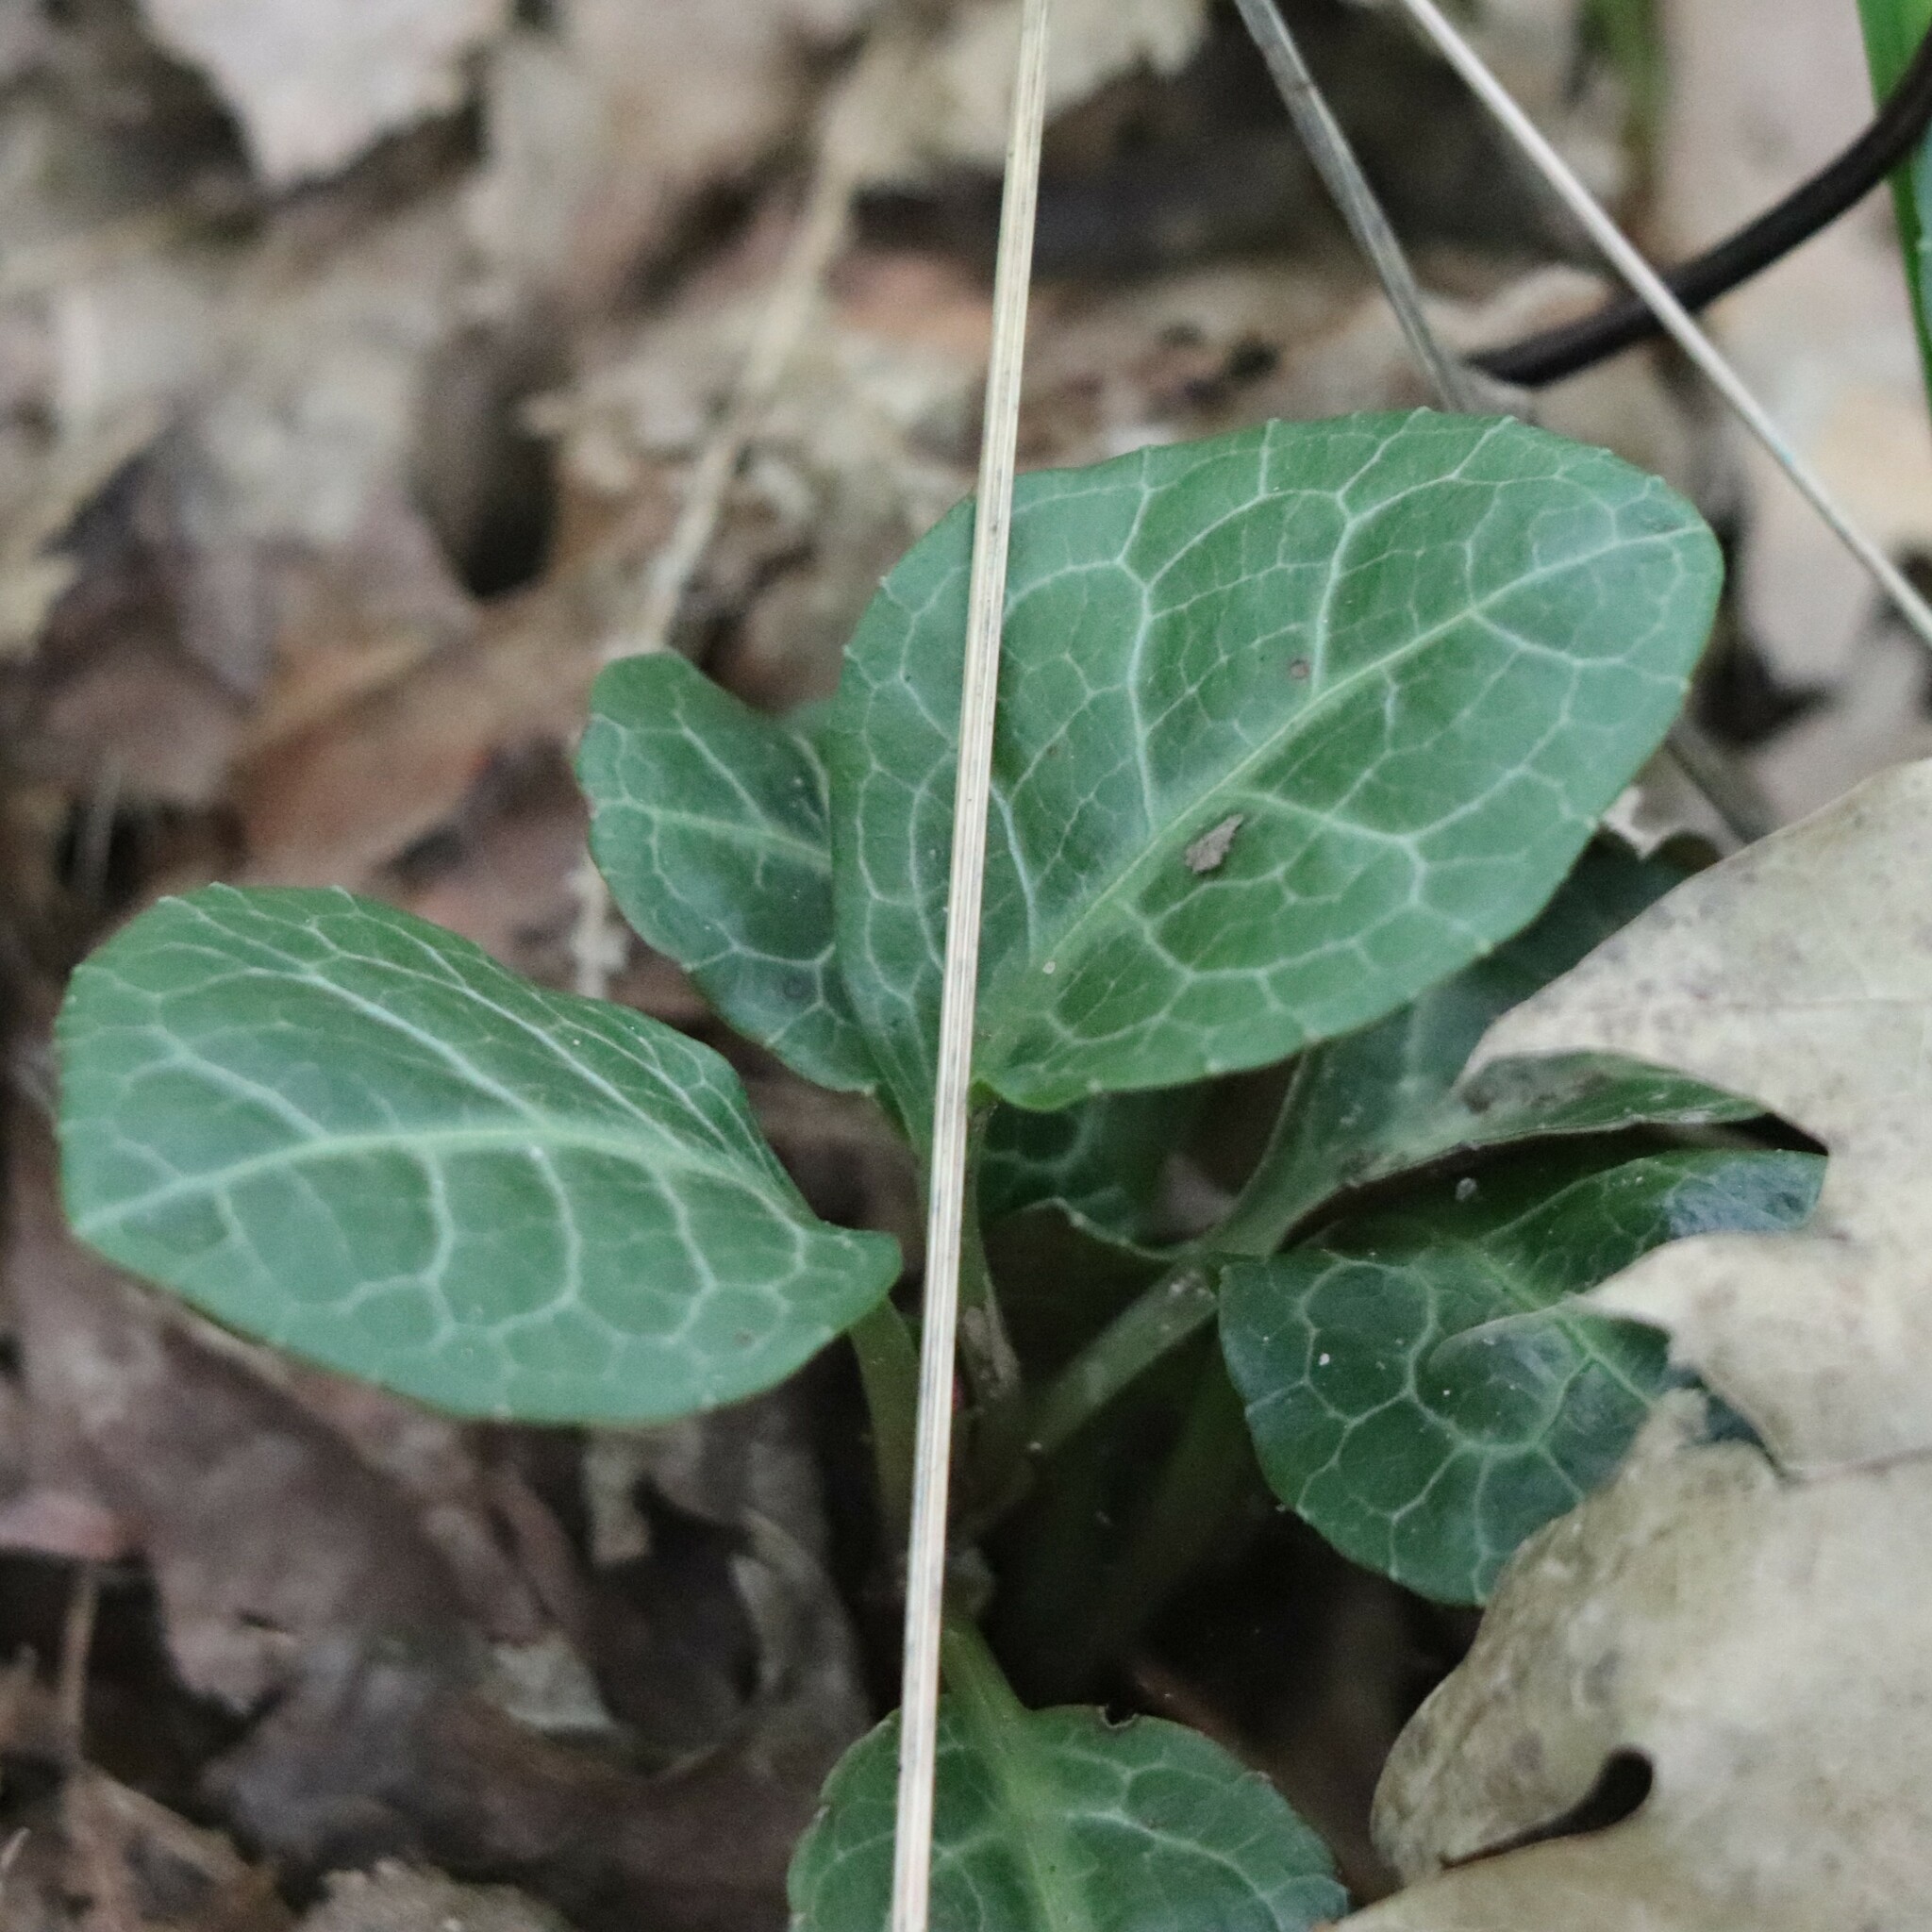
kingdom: Plantae
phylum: Tracheophyta
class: Magnoliopsida
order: Ericales
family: Ericaceae
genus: Pyrola
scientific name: Pyrola americana
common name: American wintergreen
